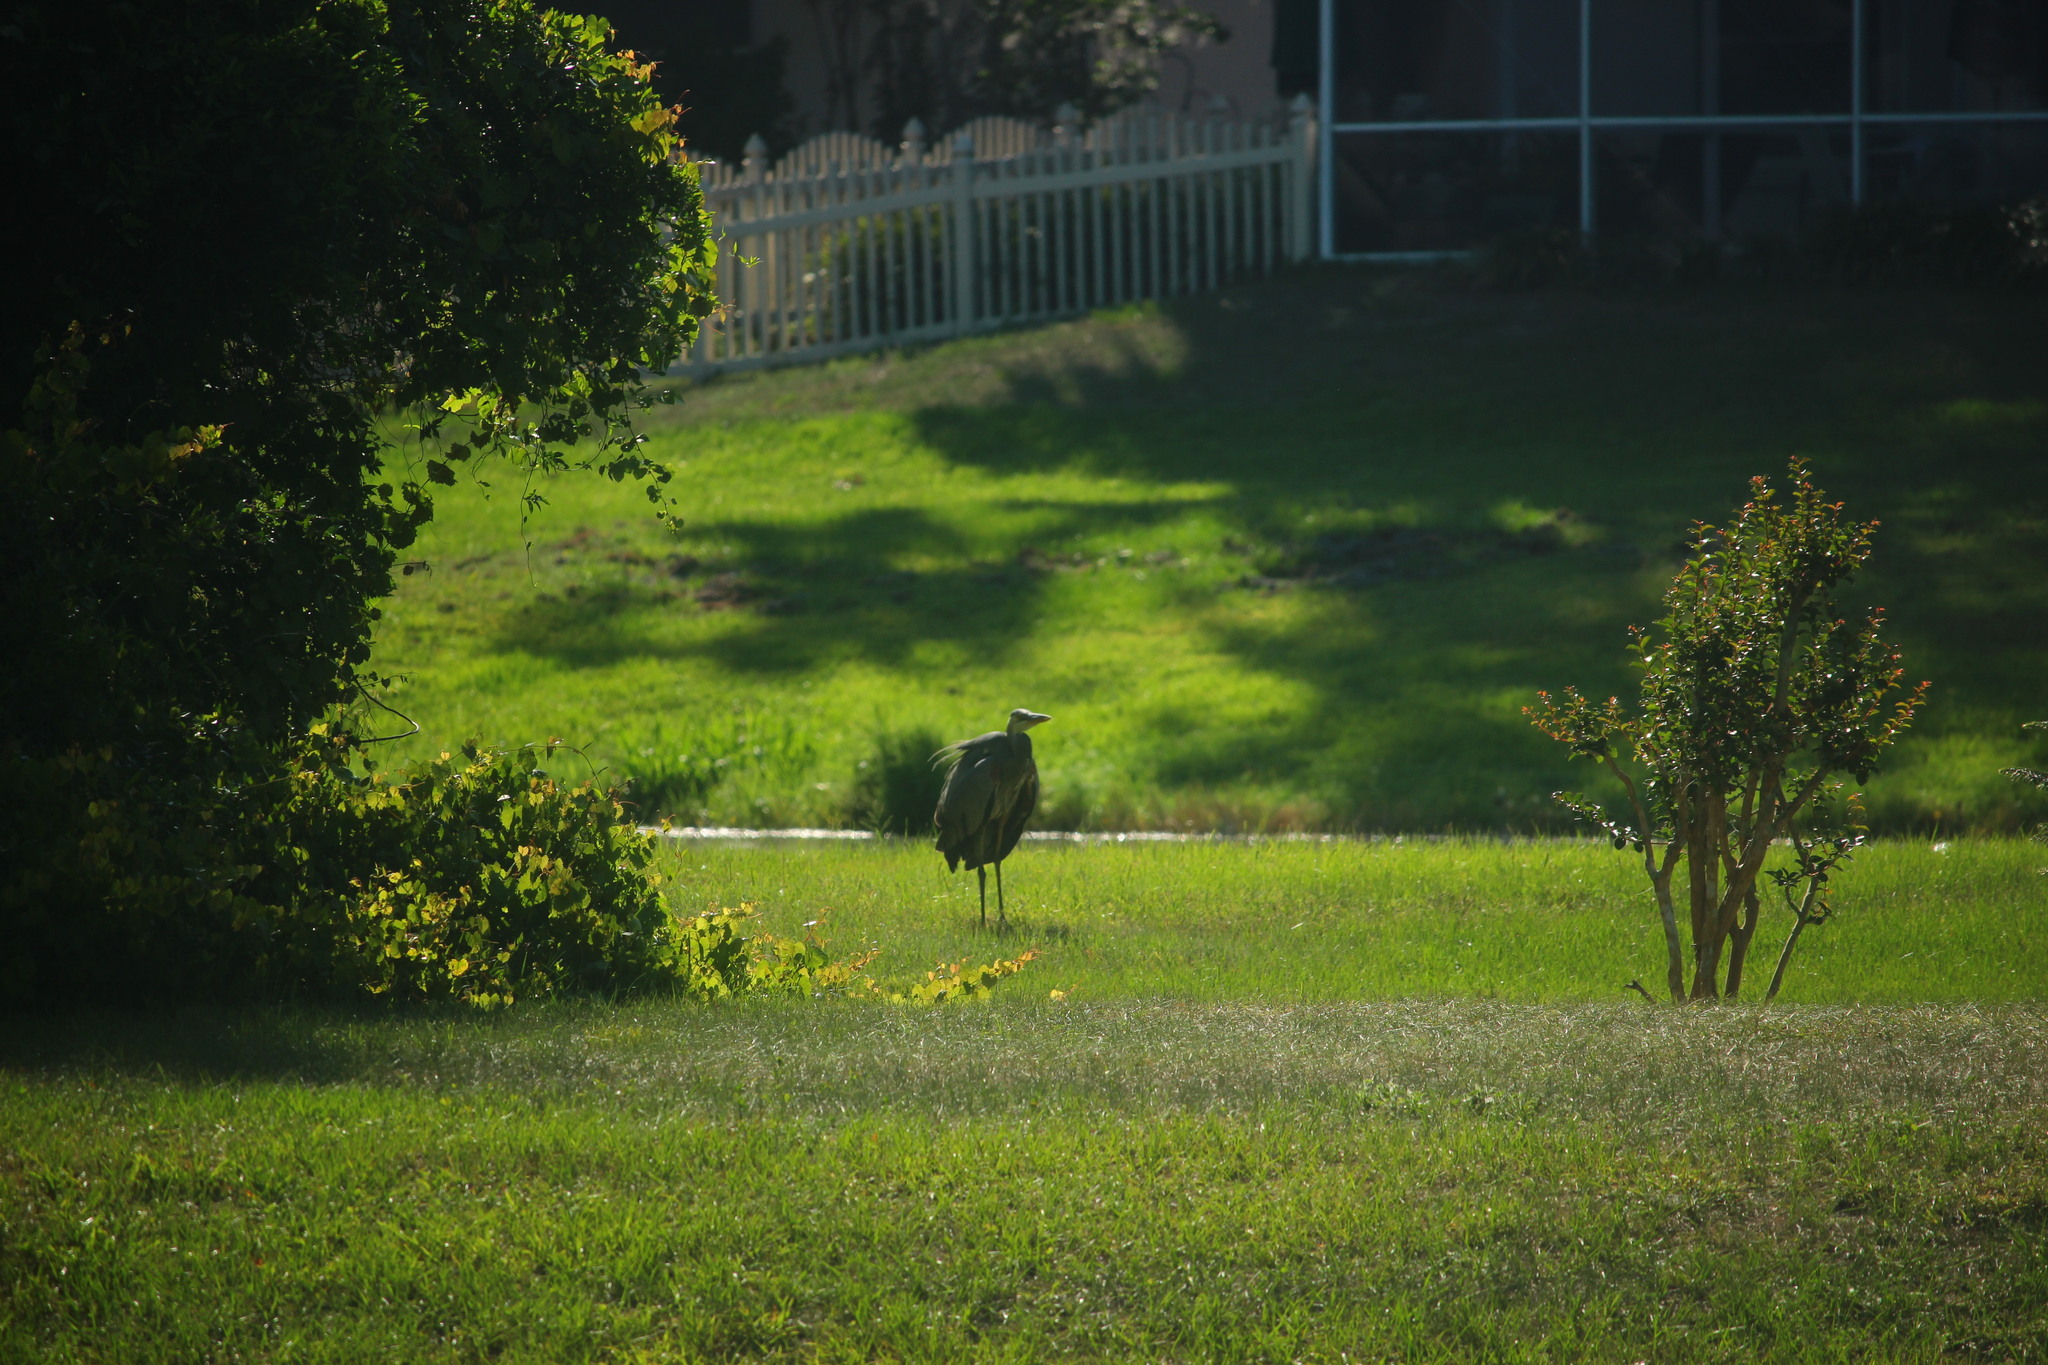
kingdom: Animalia
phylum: Chordata
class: Aves
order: Pelecaniformes
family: Ardeidae
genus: Ardea
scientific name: Ardea herodias
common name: Great blue heron
